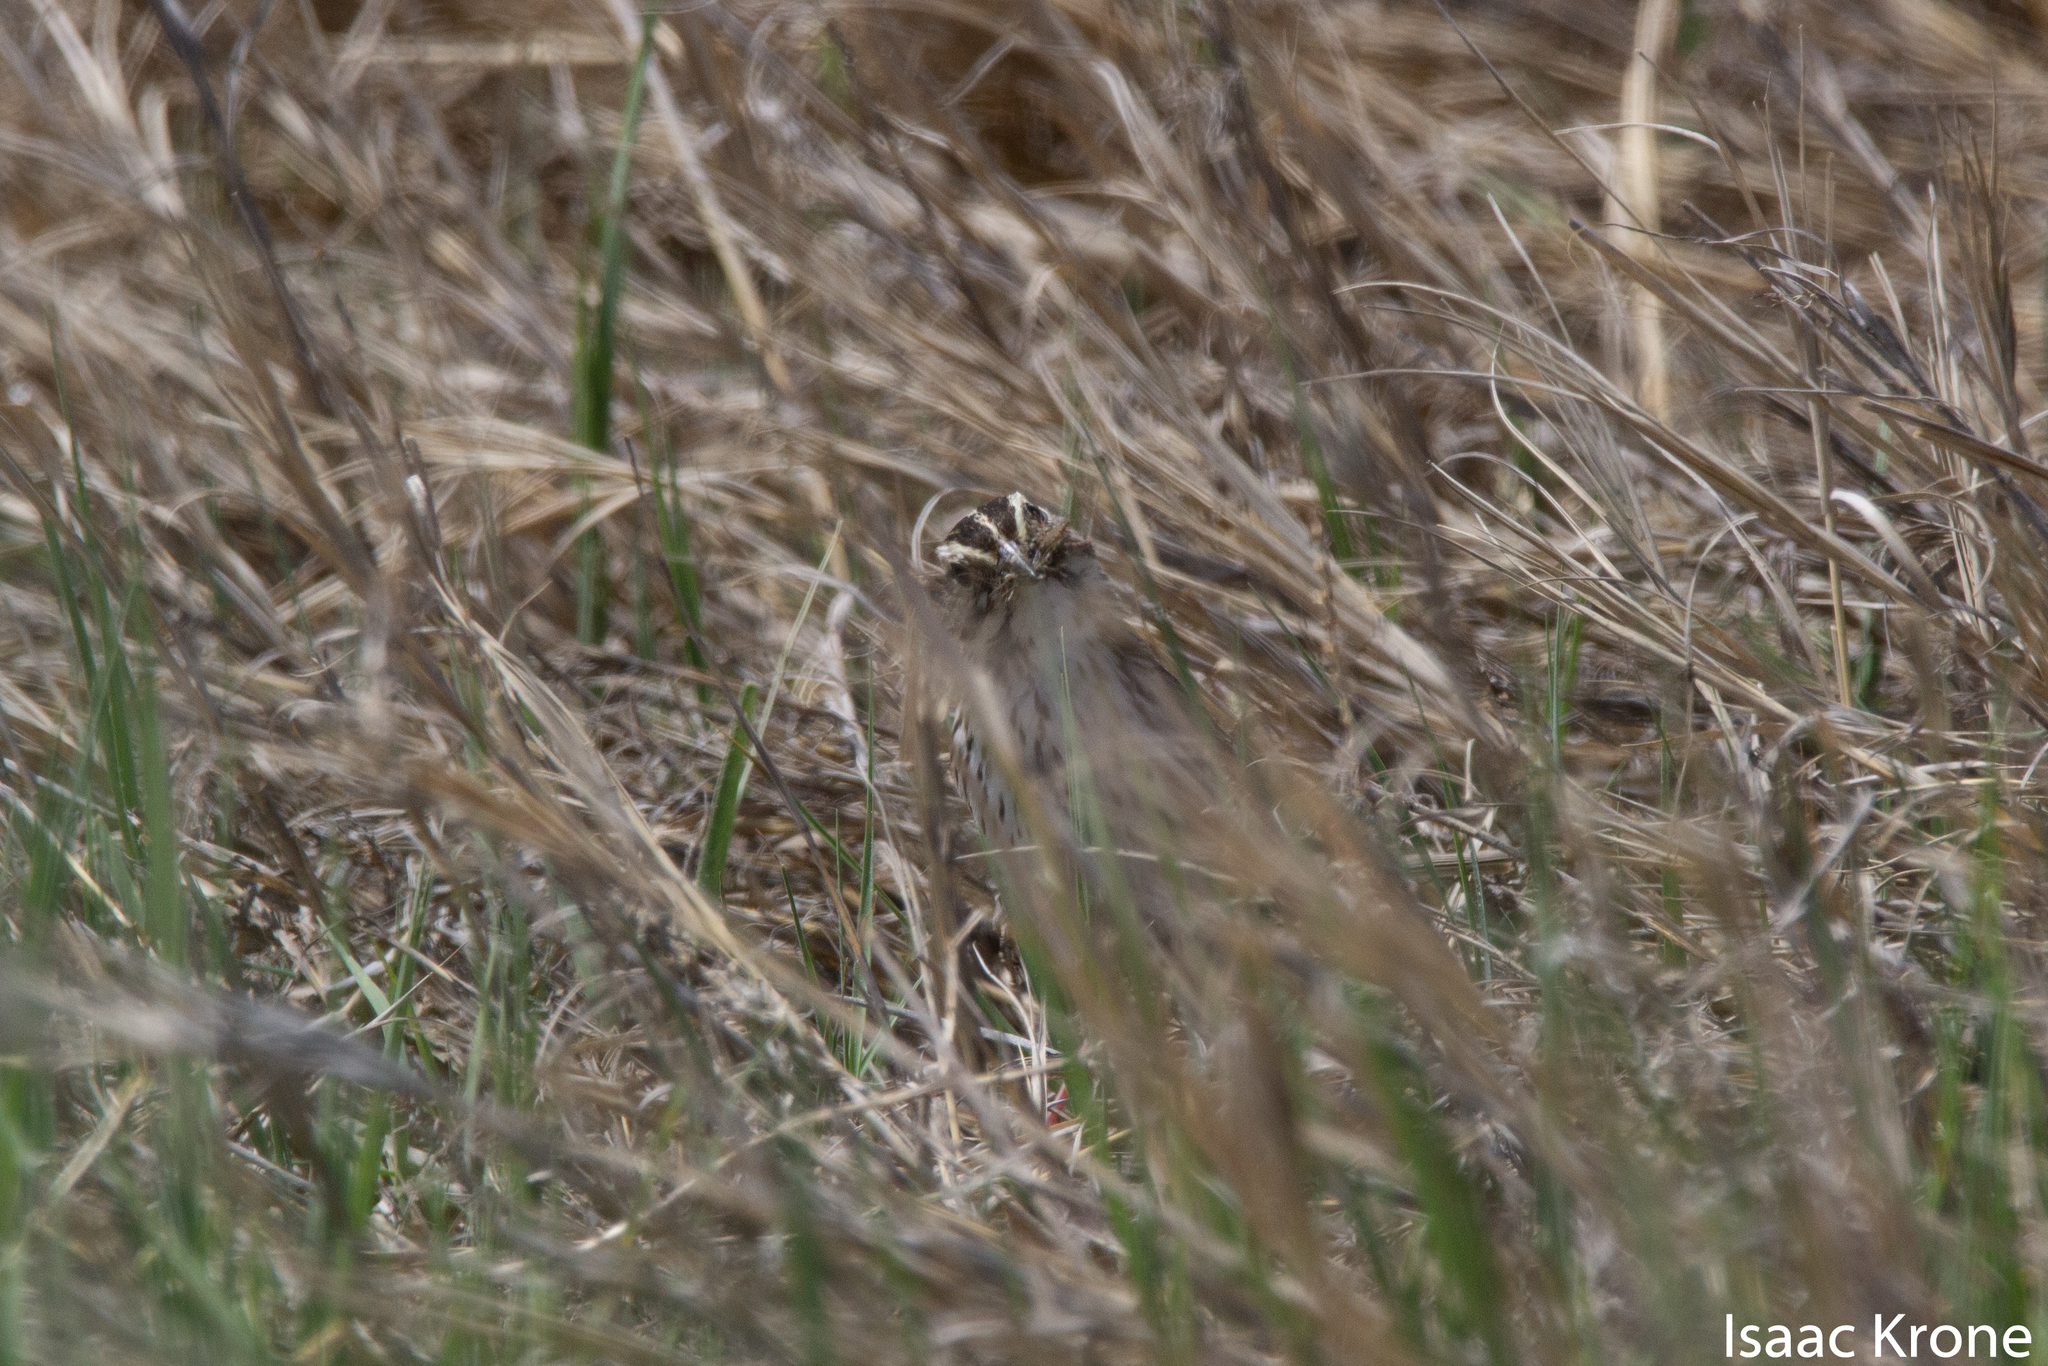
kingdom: Animalia
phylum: Chordata
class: Aves
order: Passeriformes
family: Passerellidae
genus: Passerculus
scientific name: Passerculus sandwichensis
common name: Savannah sparrow
